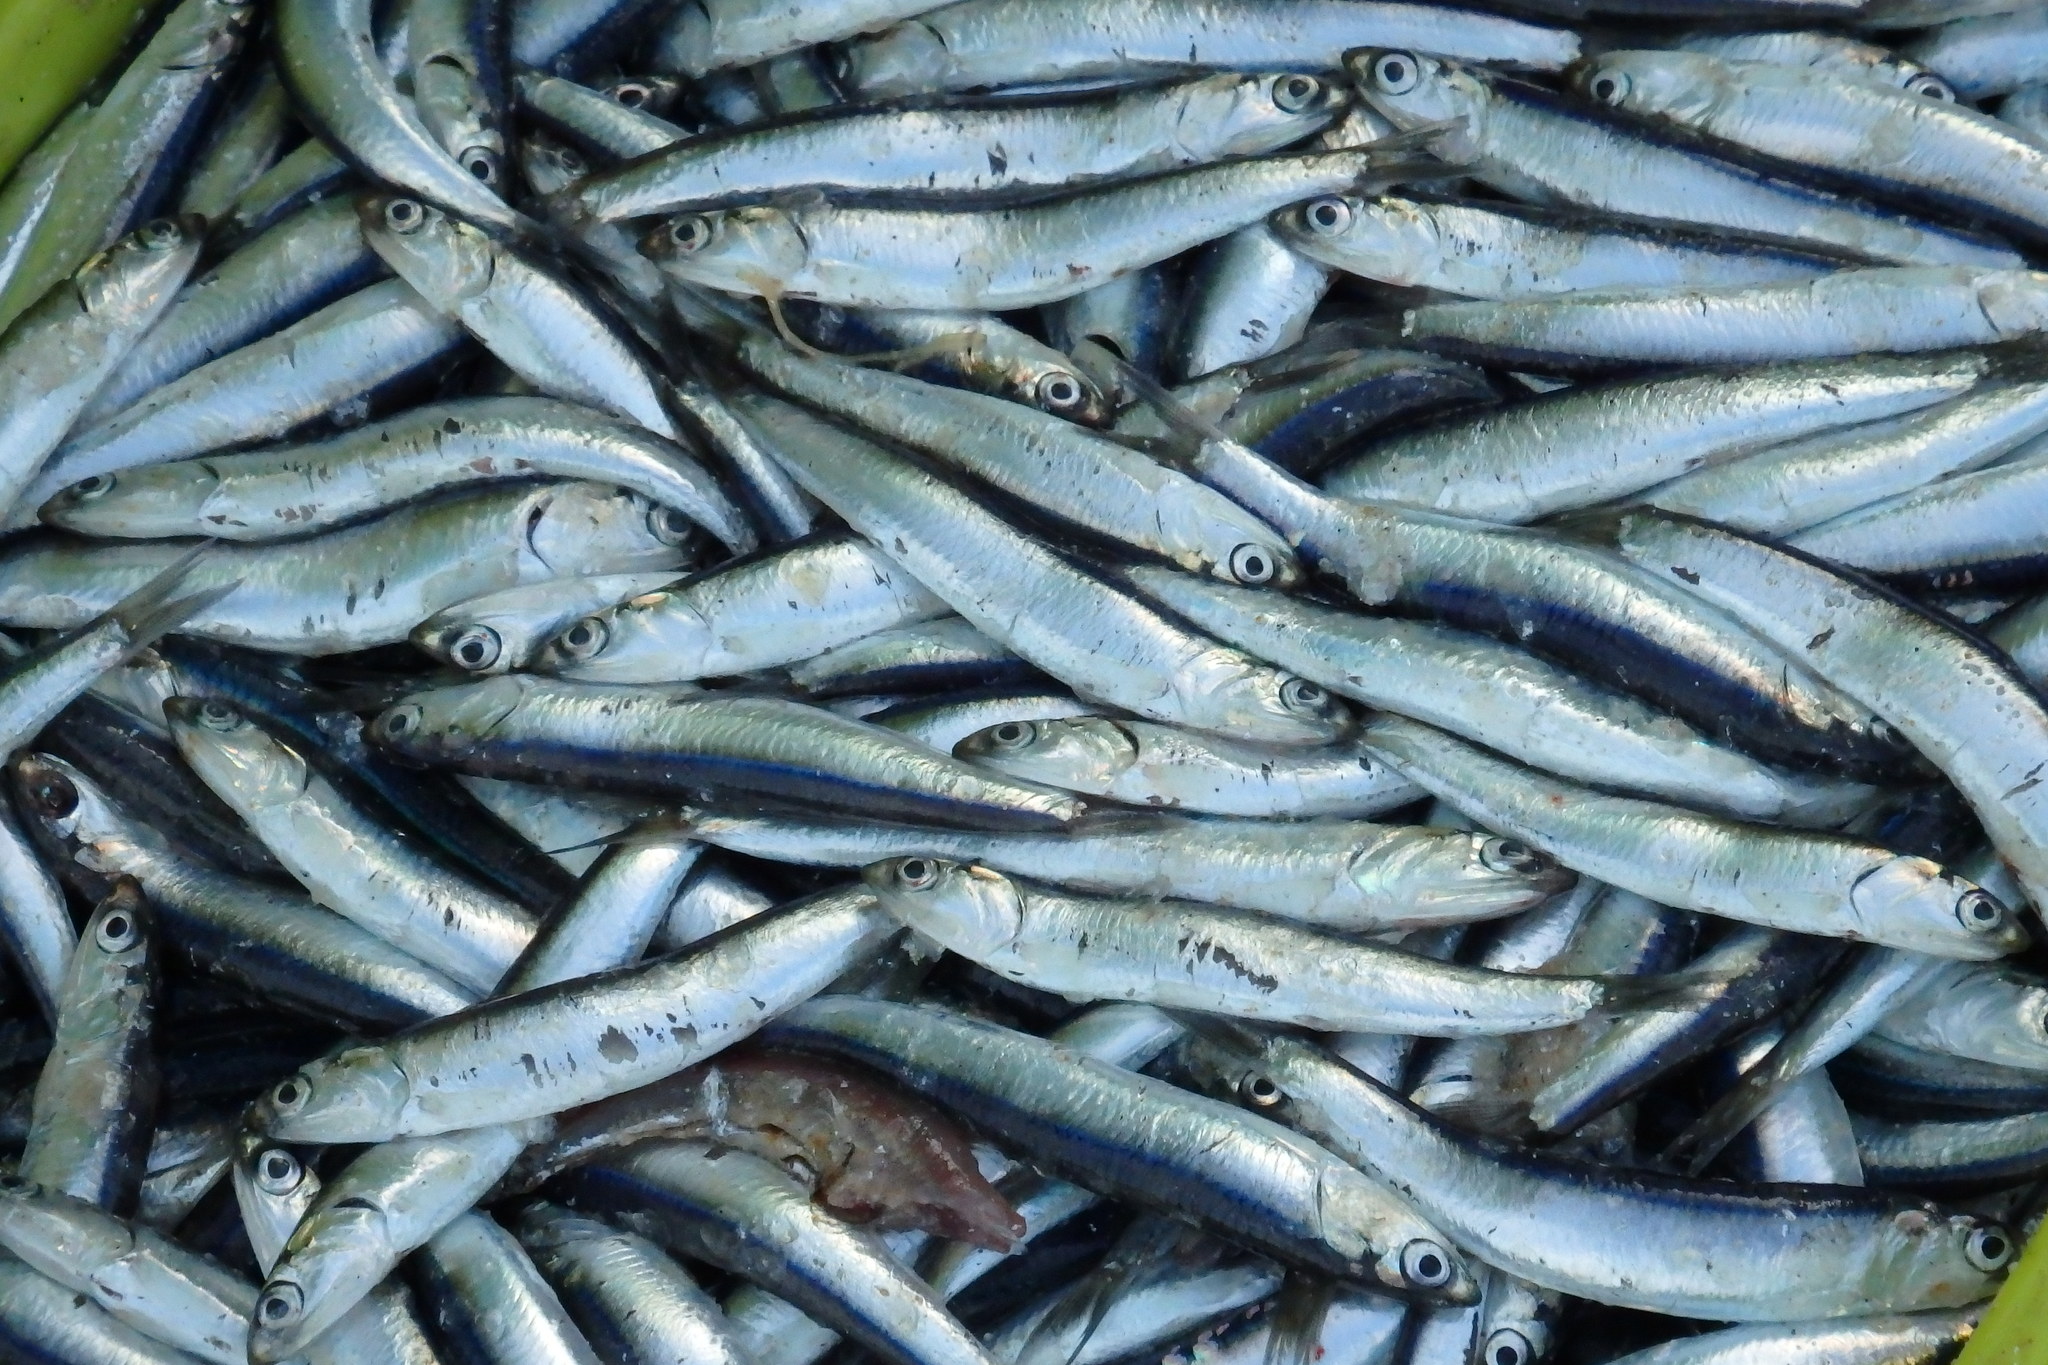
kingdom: Animalia
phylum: Chordata
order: Clupeiformes
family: Engraulidae
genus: Engraulis
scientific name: Engraulis encrasicolus
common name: European anchovy
